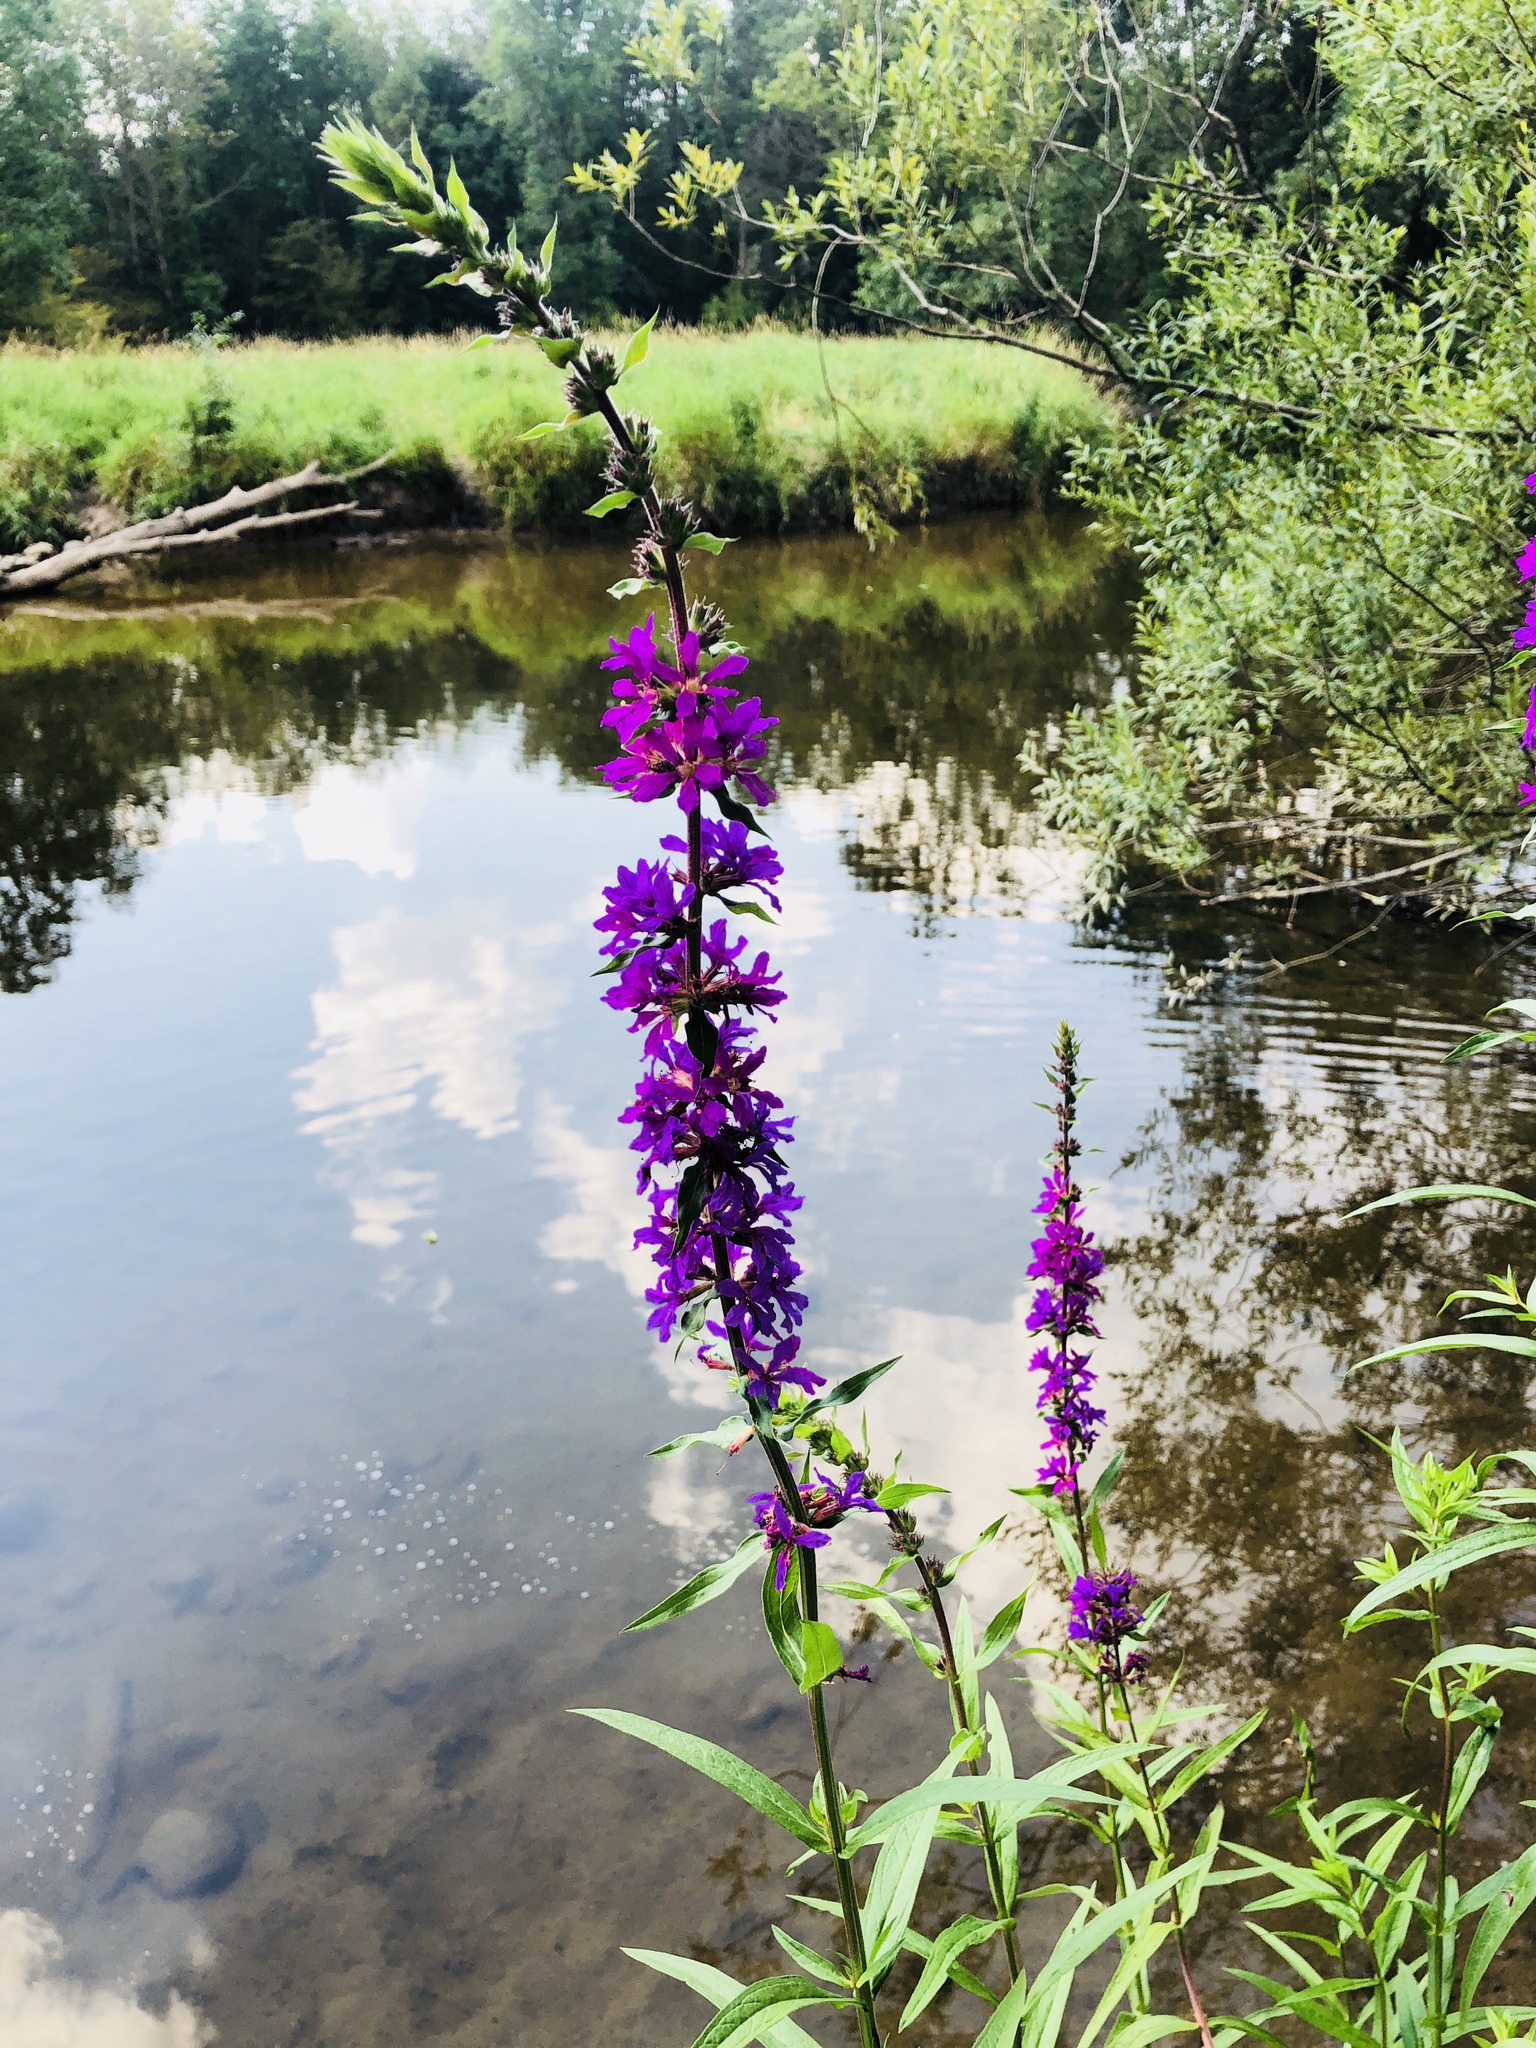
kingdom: Plantae
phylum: Tracheophyta
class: Magnoliopsida
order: Myrtales
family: Lythraceae
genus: Lythrum
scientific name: Lythrum salicaria
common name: Purple loosestrife
